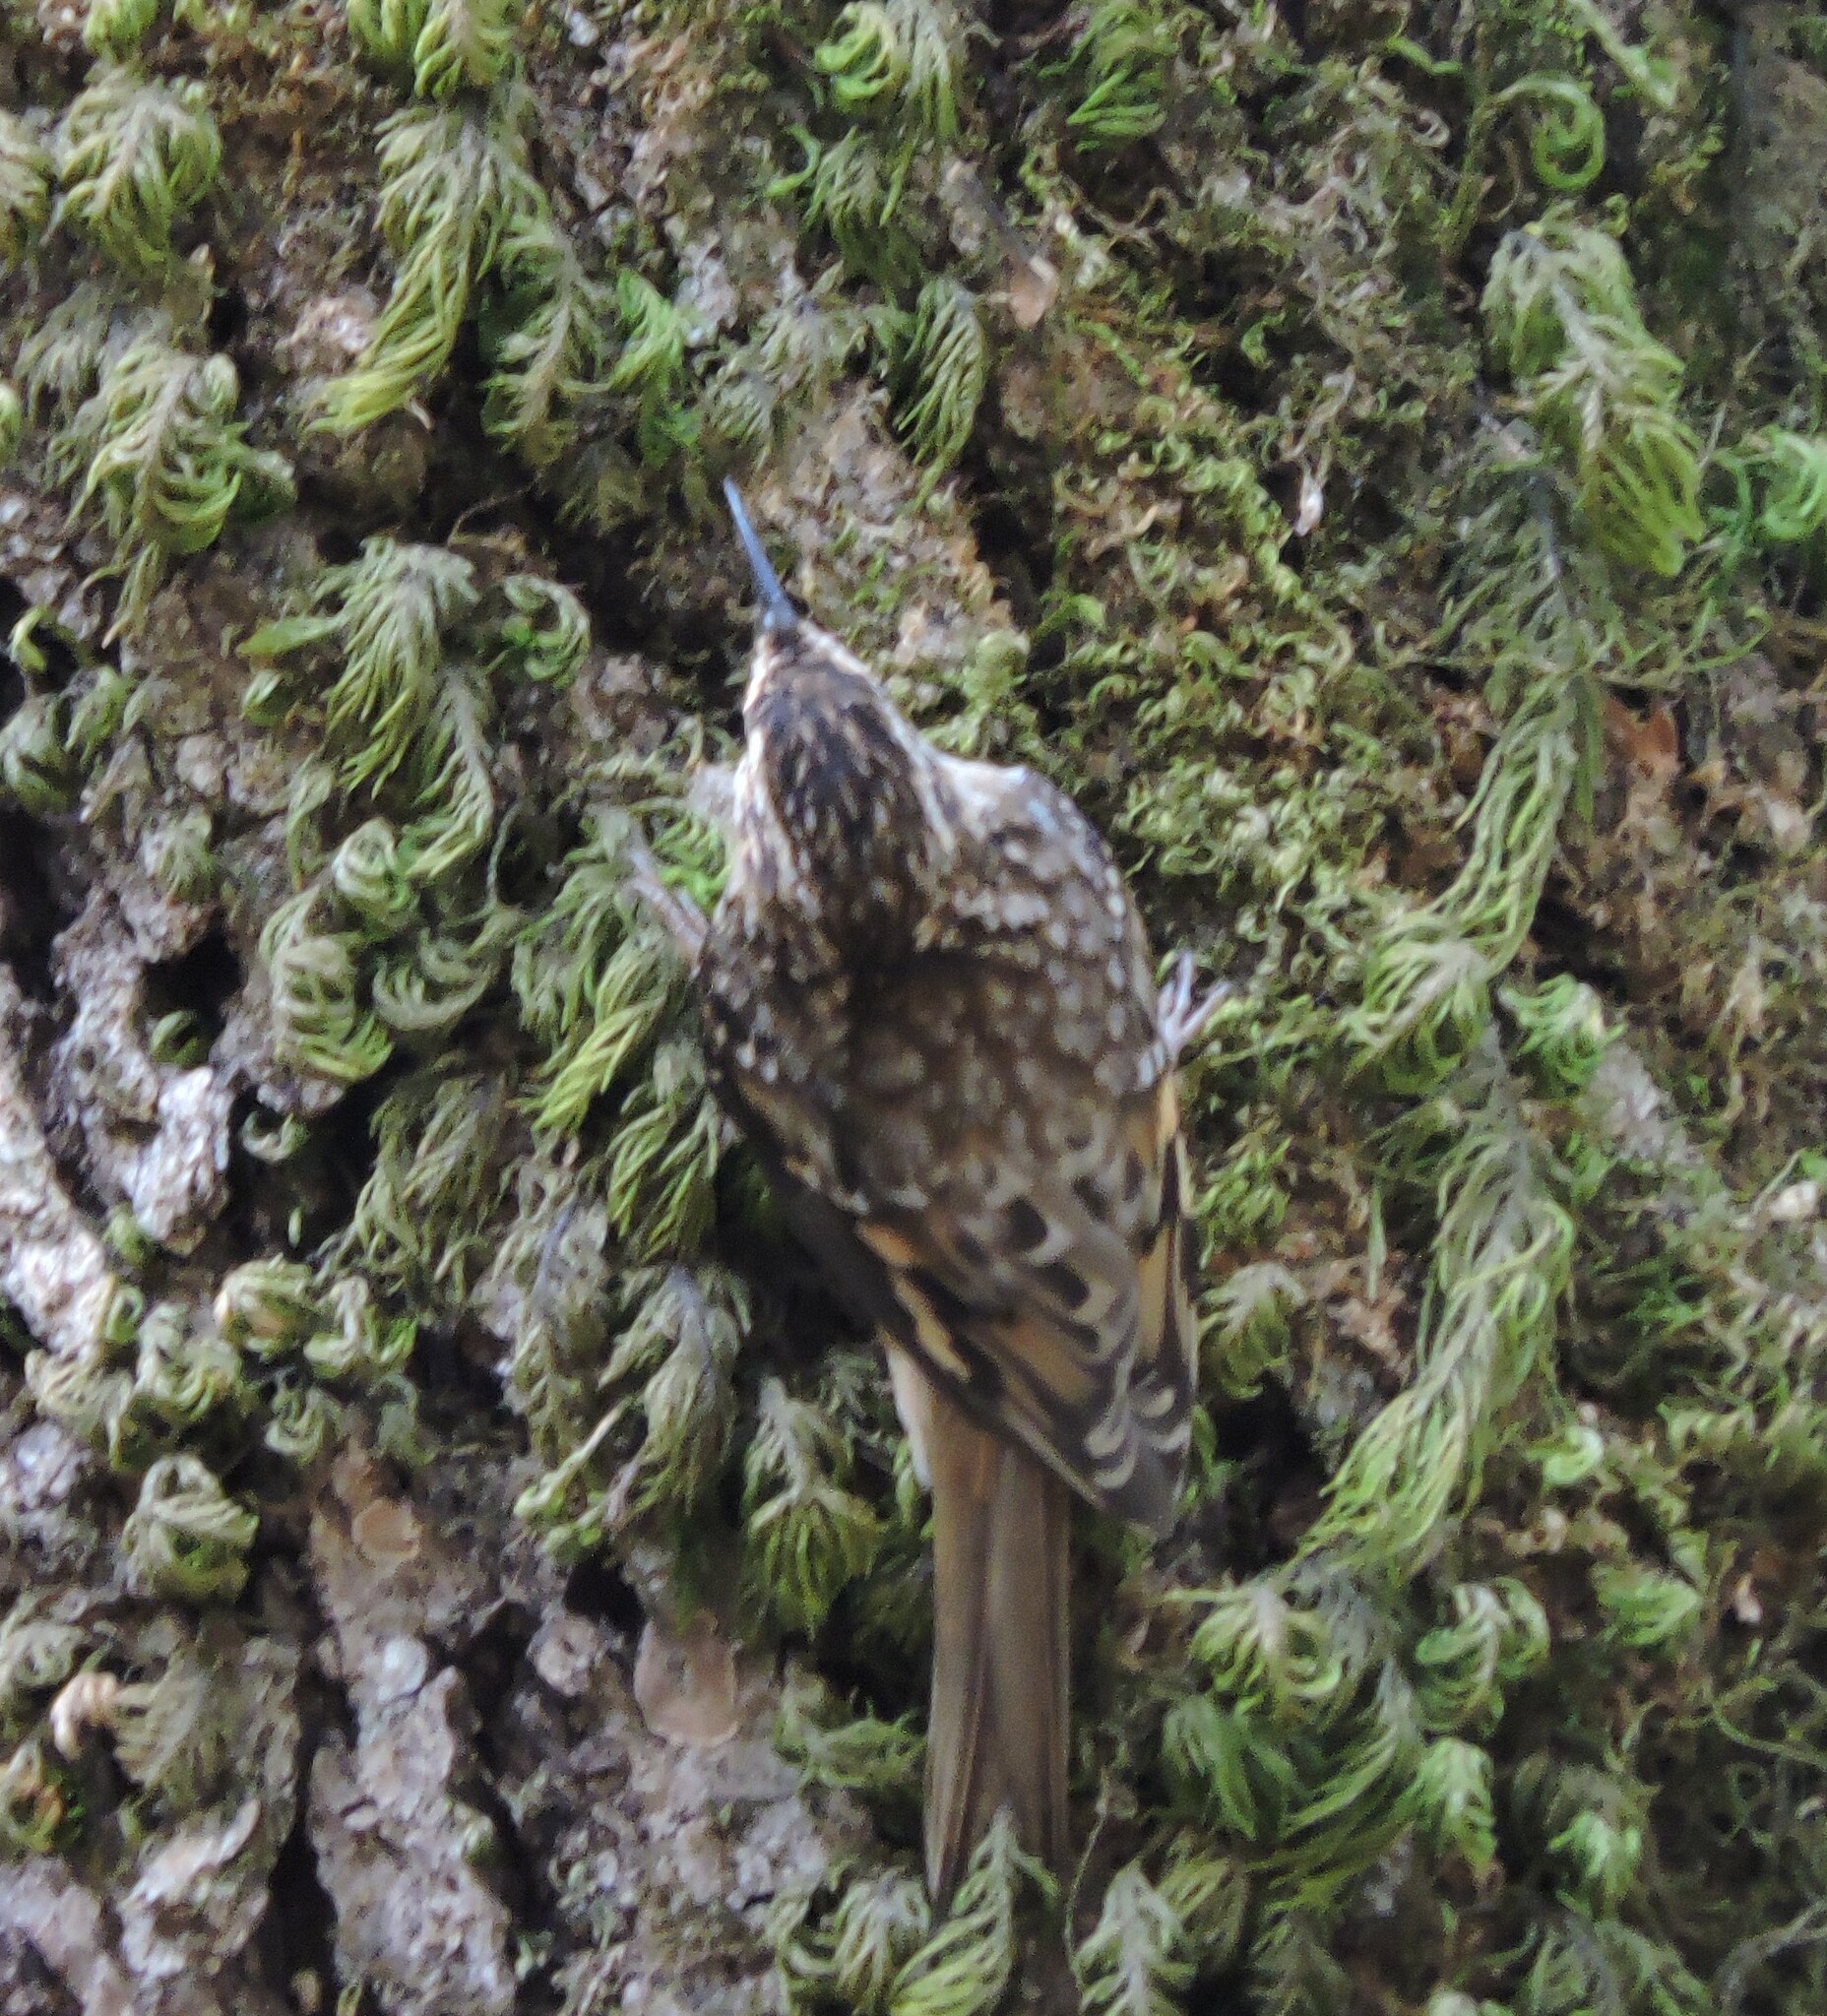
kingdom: Animalia
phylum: Chordata
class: Aves
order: Passeriformes
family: Certhiidae
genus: Certhia
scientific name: Certhia americana
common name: Brown creeper
